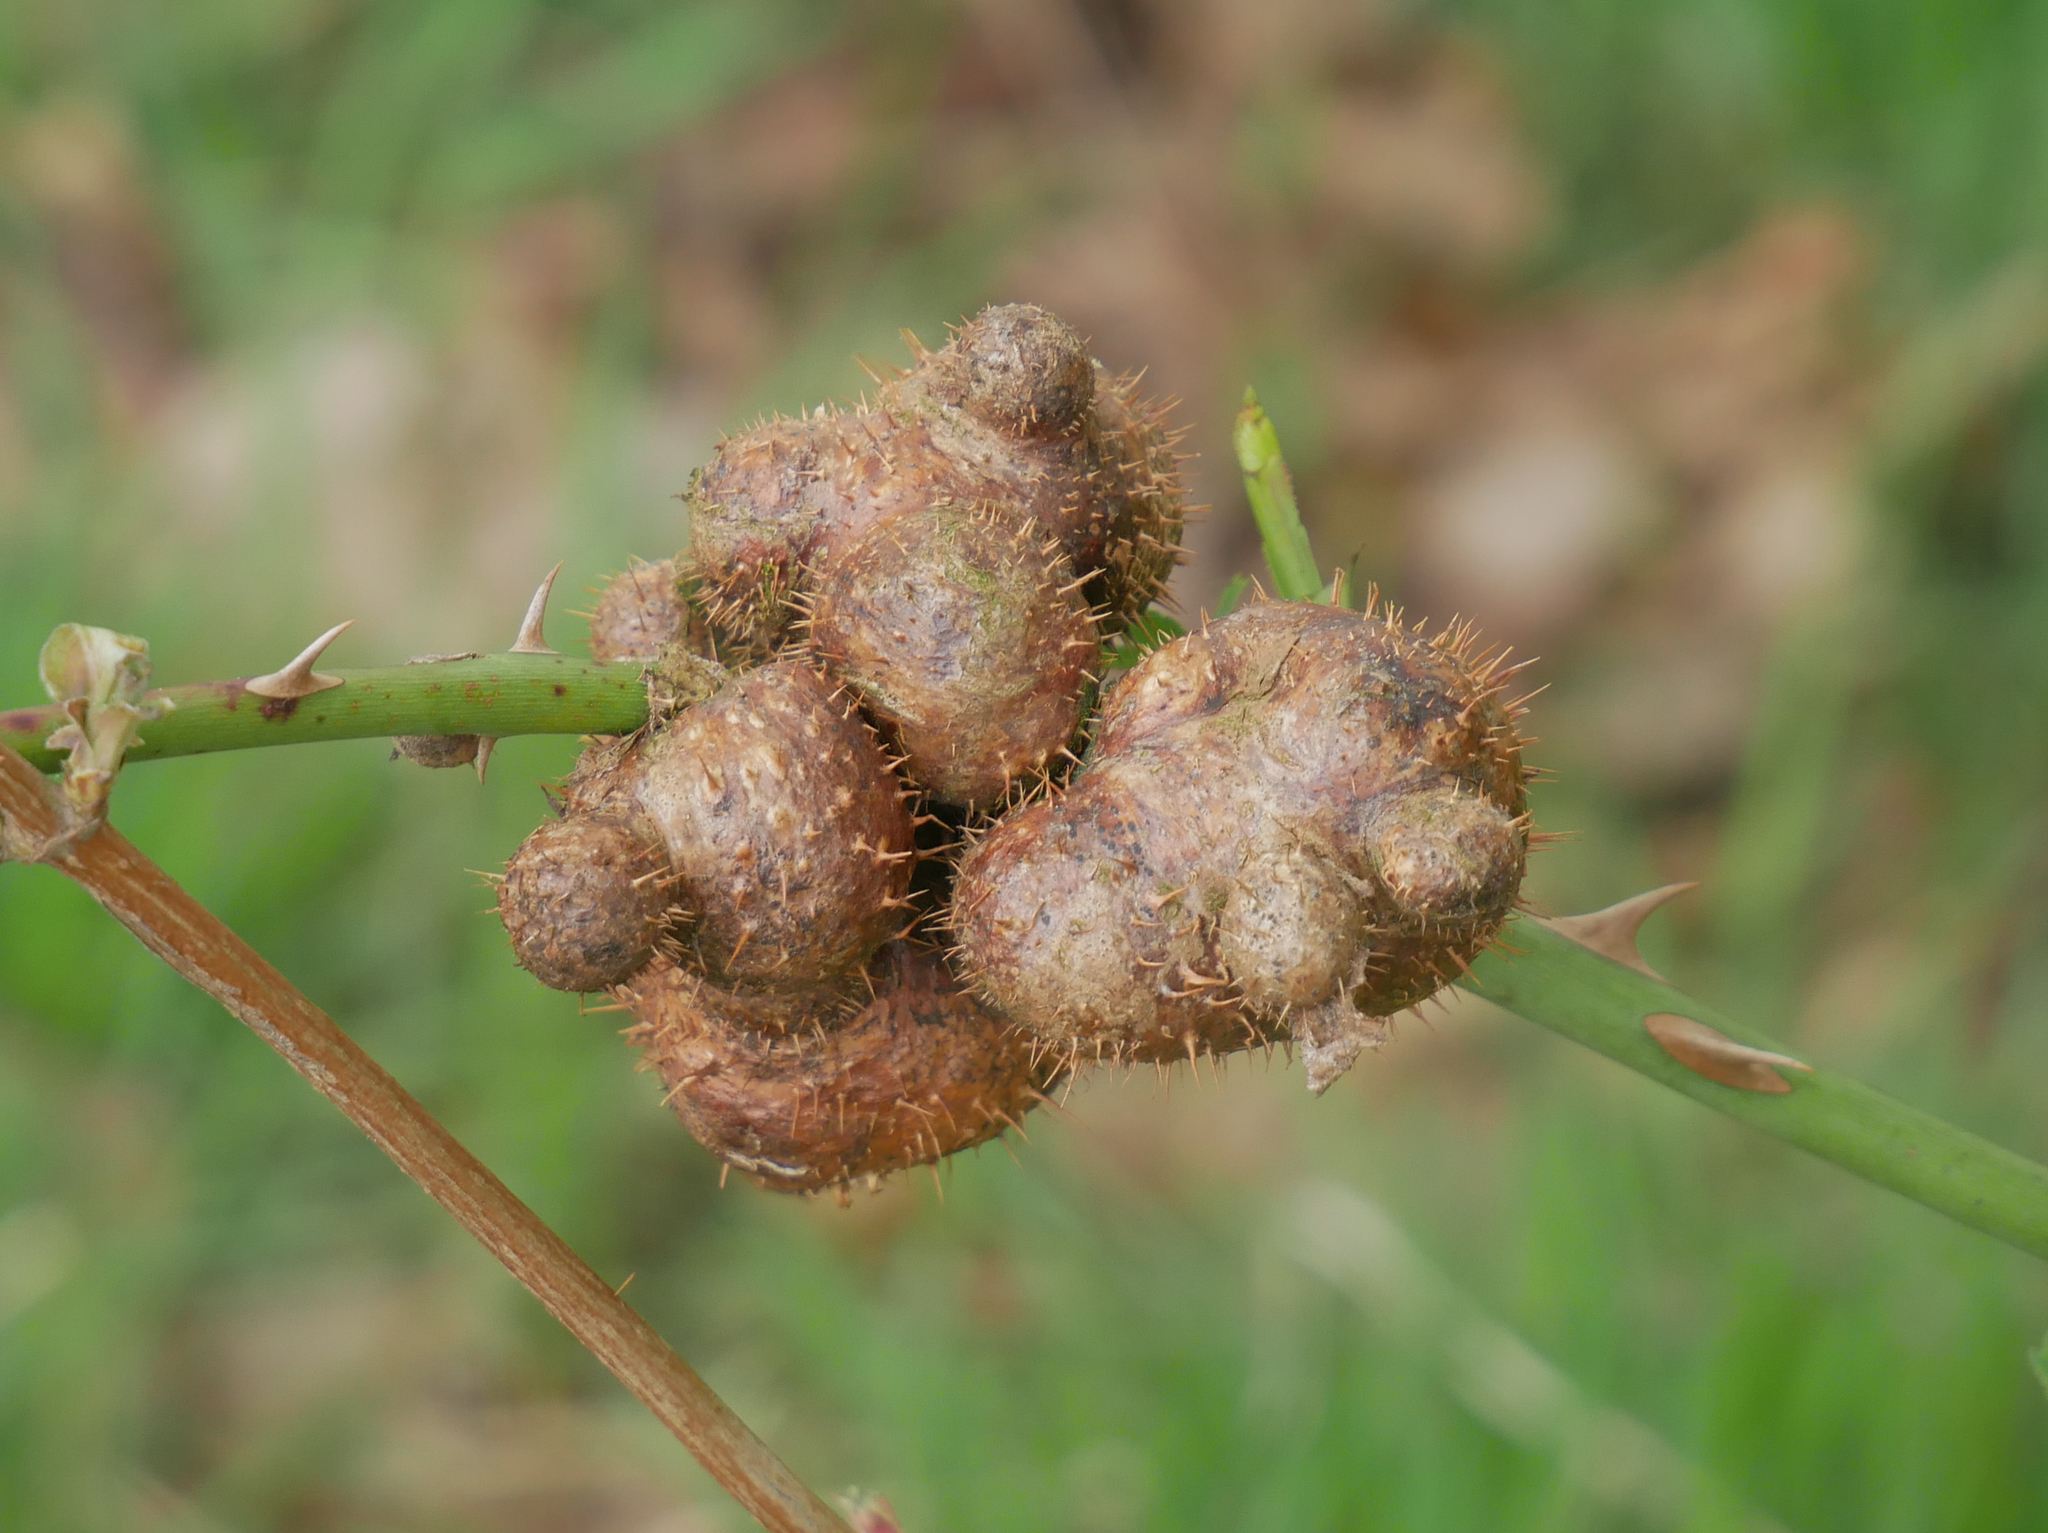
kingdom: Animalia
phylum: Arthropoda
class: Insecta
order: Hymenoptera
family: Cynipidae
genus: Diplolepis
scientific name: Diplolepis mayri
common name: Gall wasp
